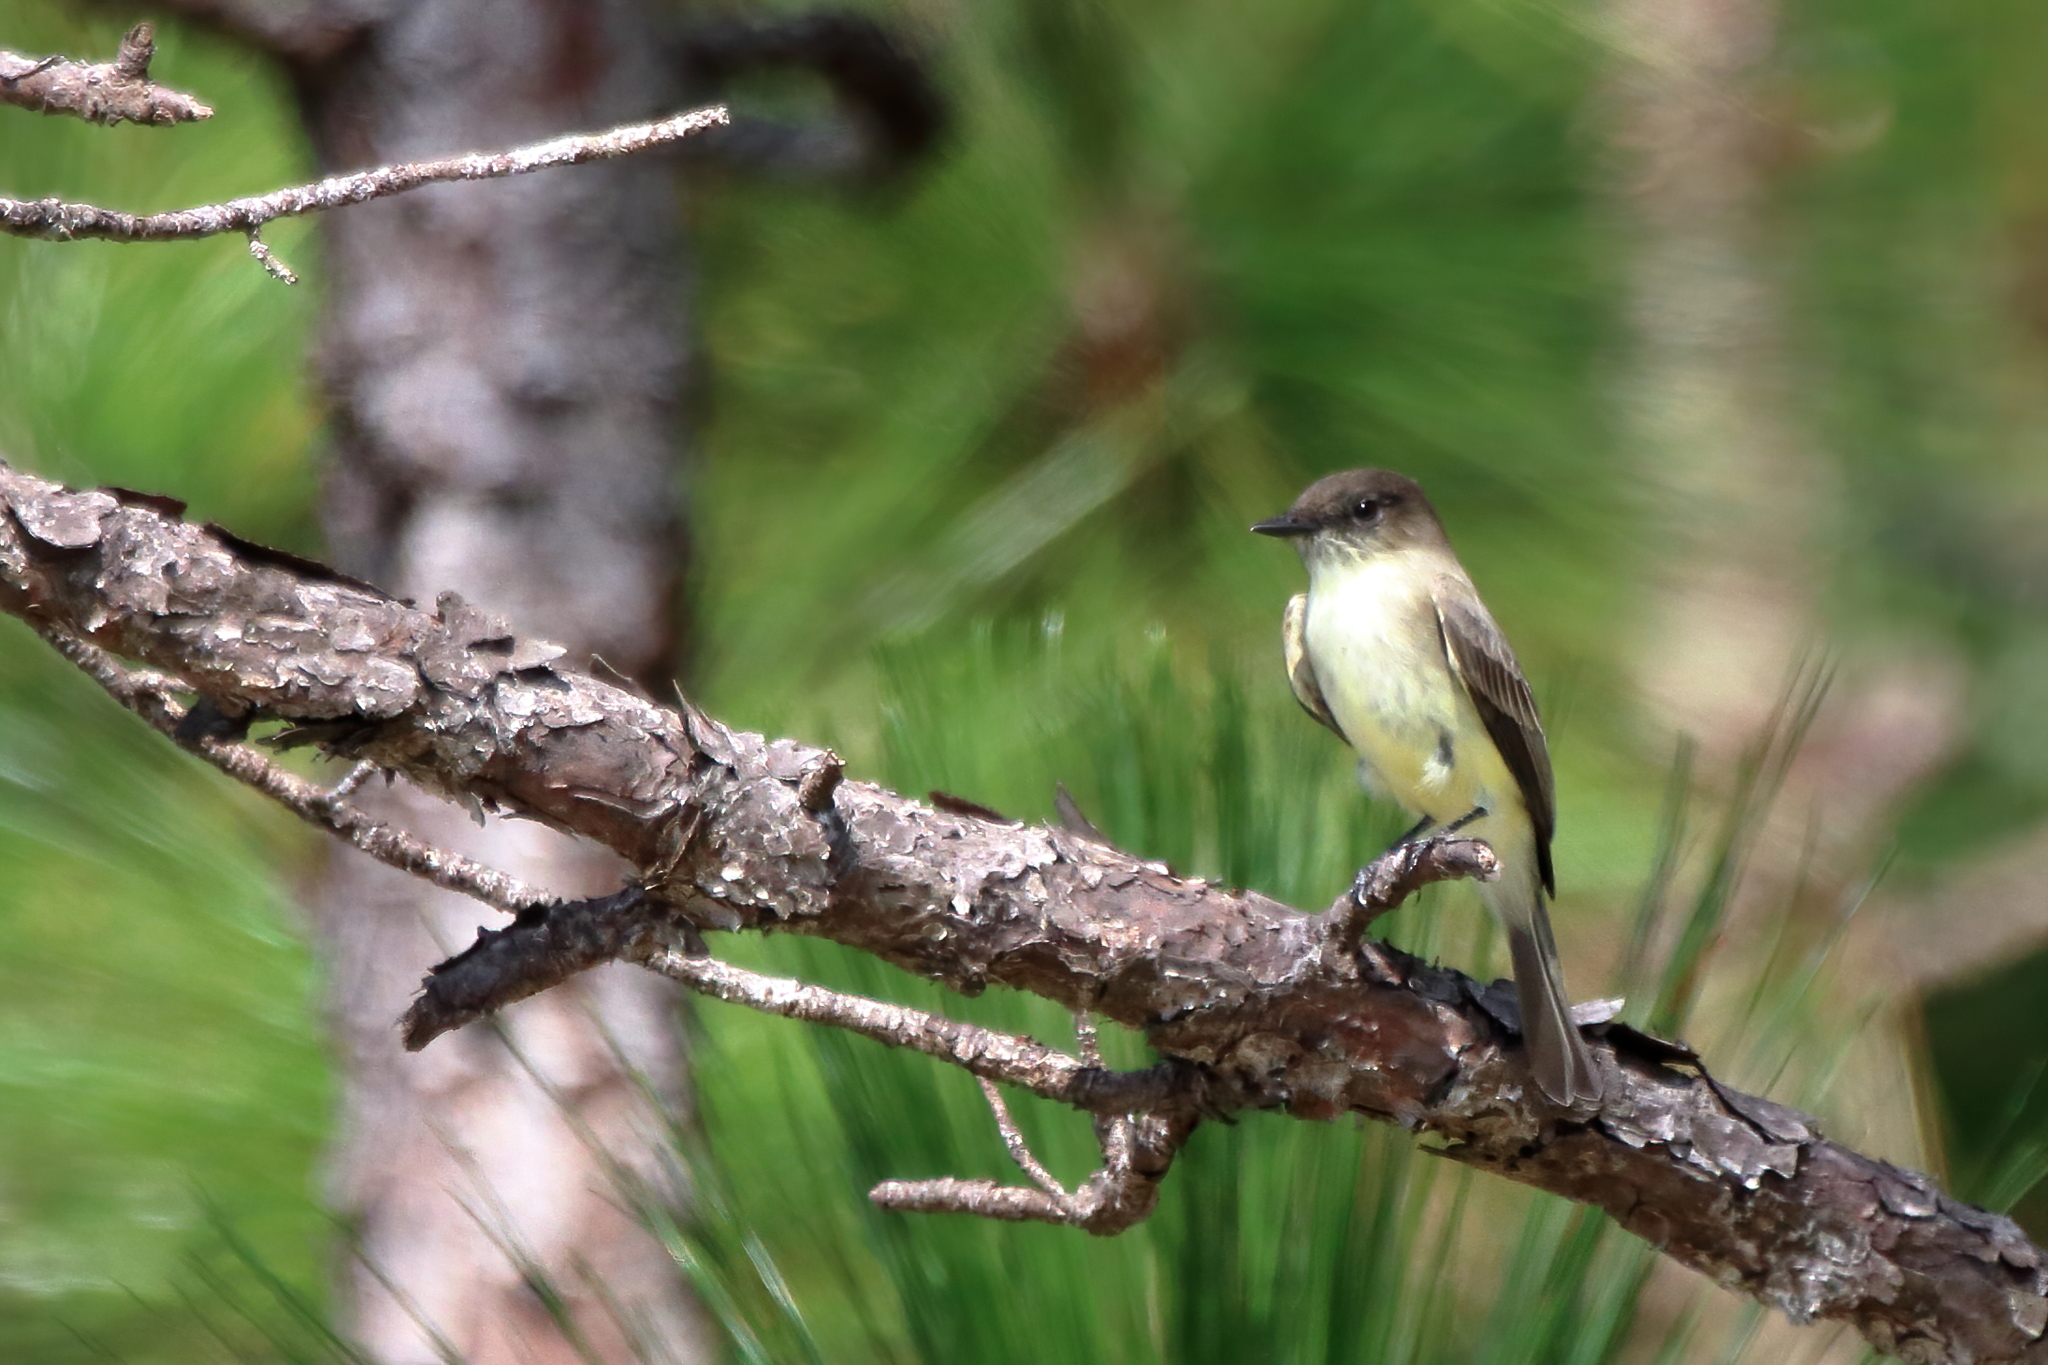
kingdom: Animalia
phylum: Chordata
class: Aves
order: Passeriformes
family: Tyrannidae
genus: Sayornis
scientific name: Sayornis phoebe
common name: Eastern phoebe
